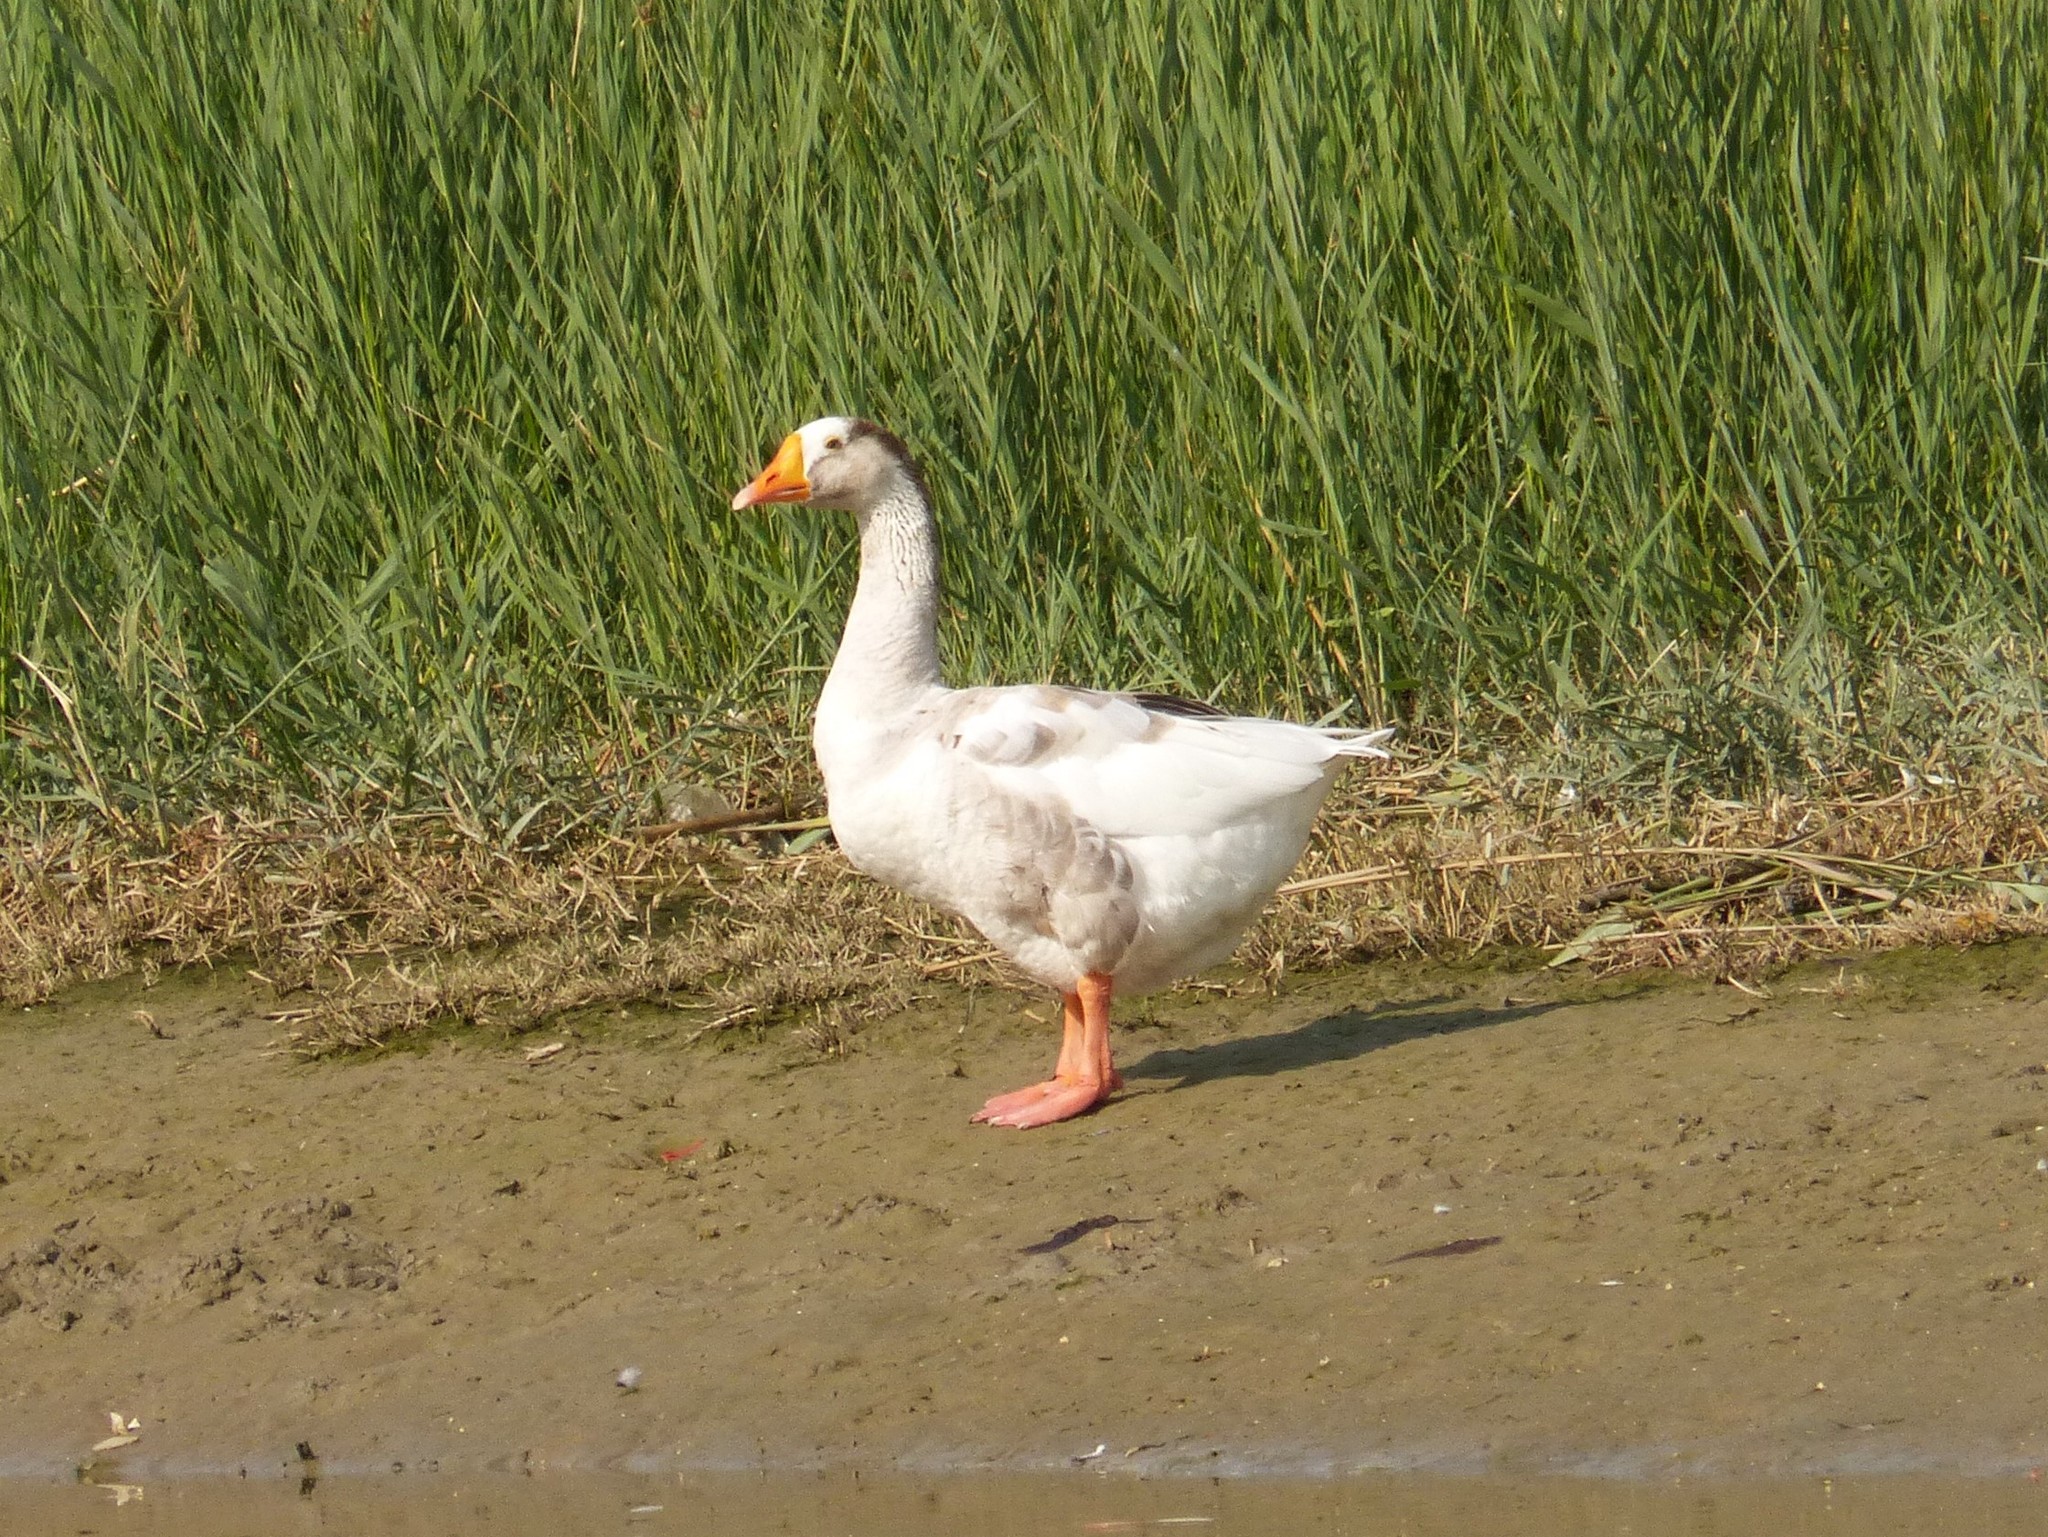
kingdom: Animalia
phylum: Chordata
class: Aves
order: Anseriformes
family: Anatidae
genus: Anser
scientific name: Anser
